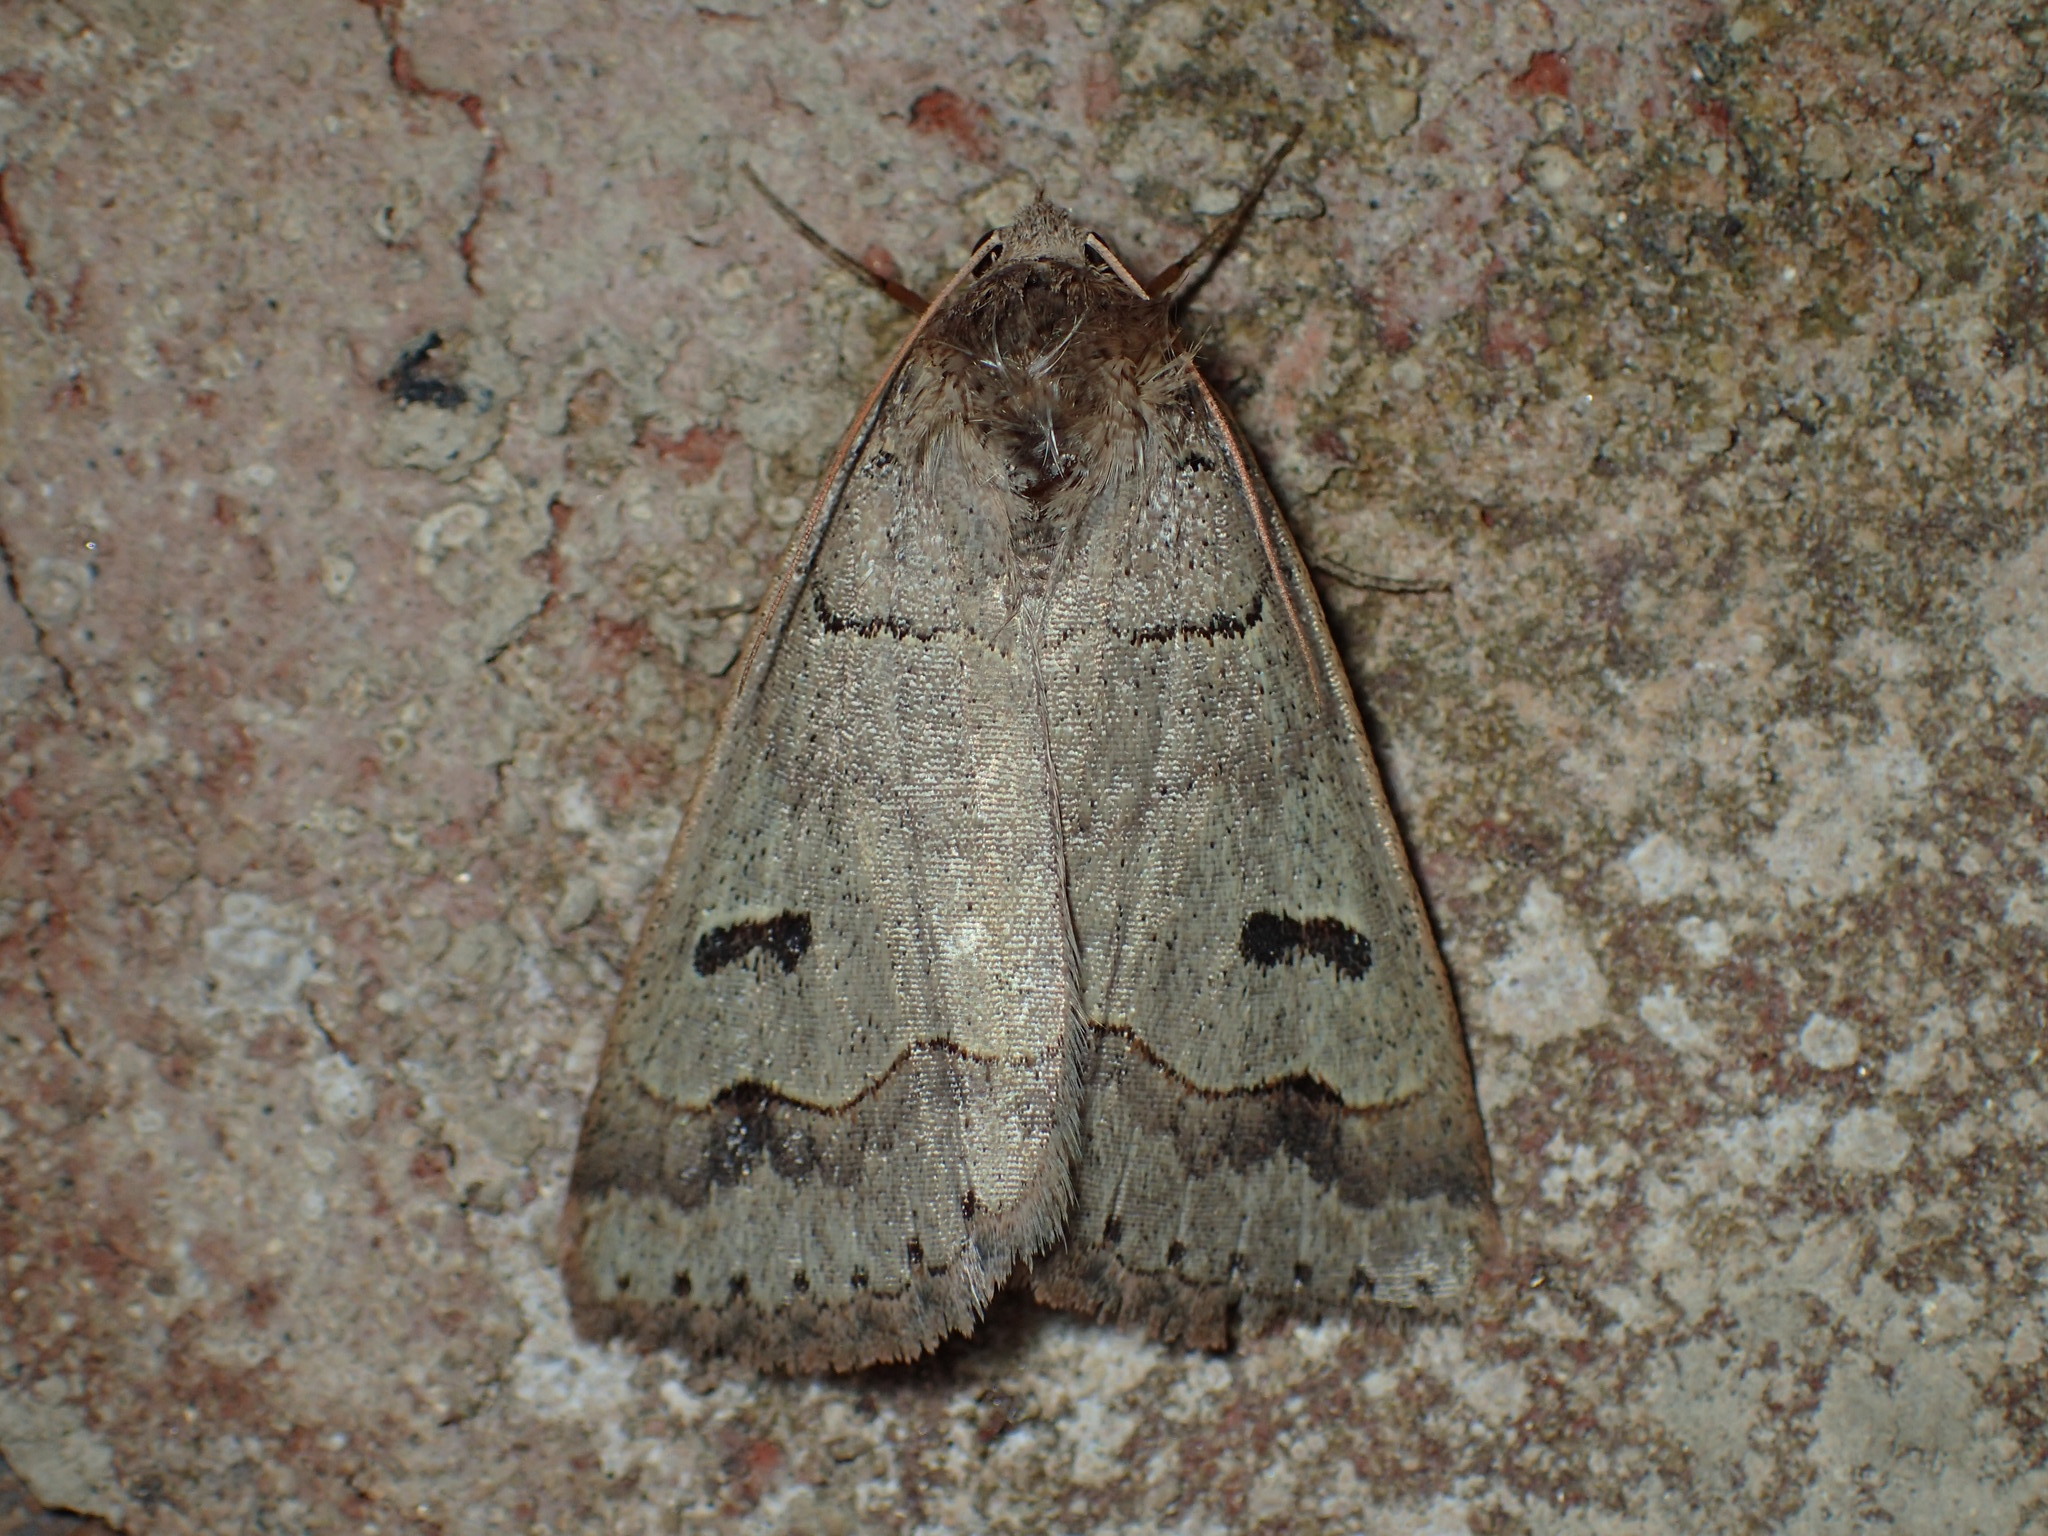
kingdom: Animalia
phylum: Arthropoda
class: Insecta
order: Lepidoptera
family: Erebidae
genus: Phoberia
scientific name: Phoberia atomaris
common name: Common oak moth
